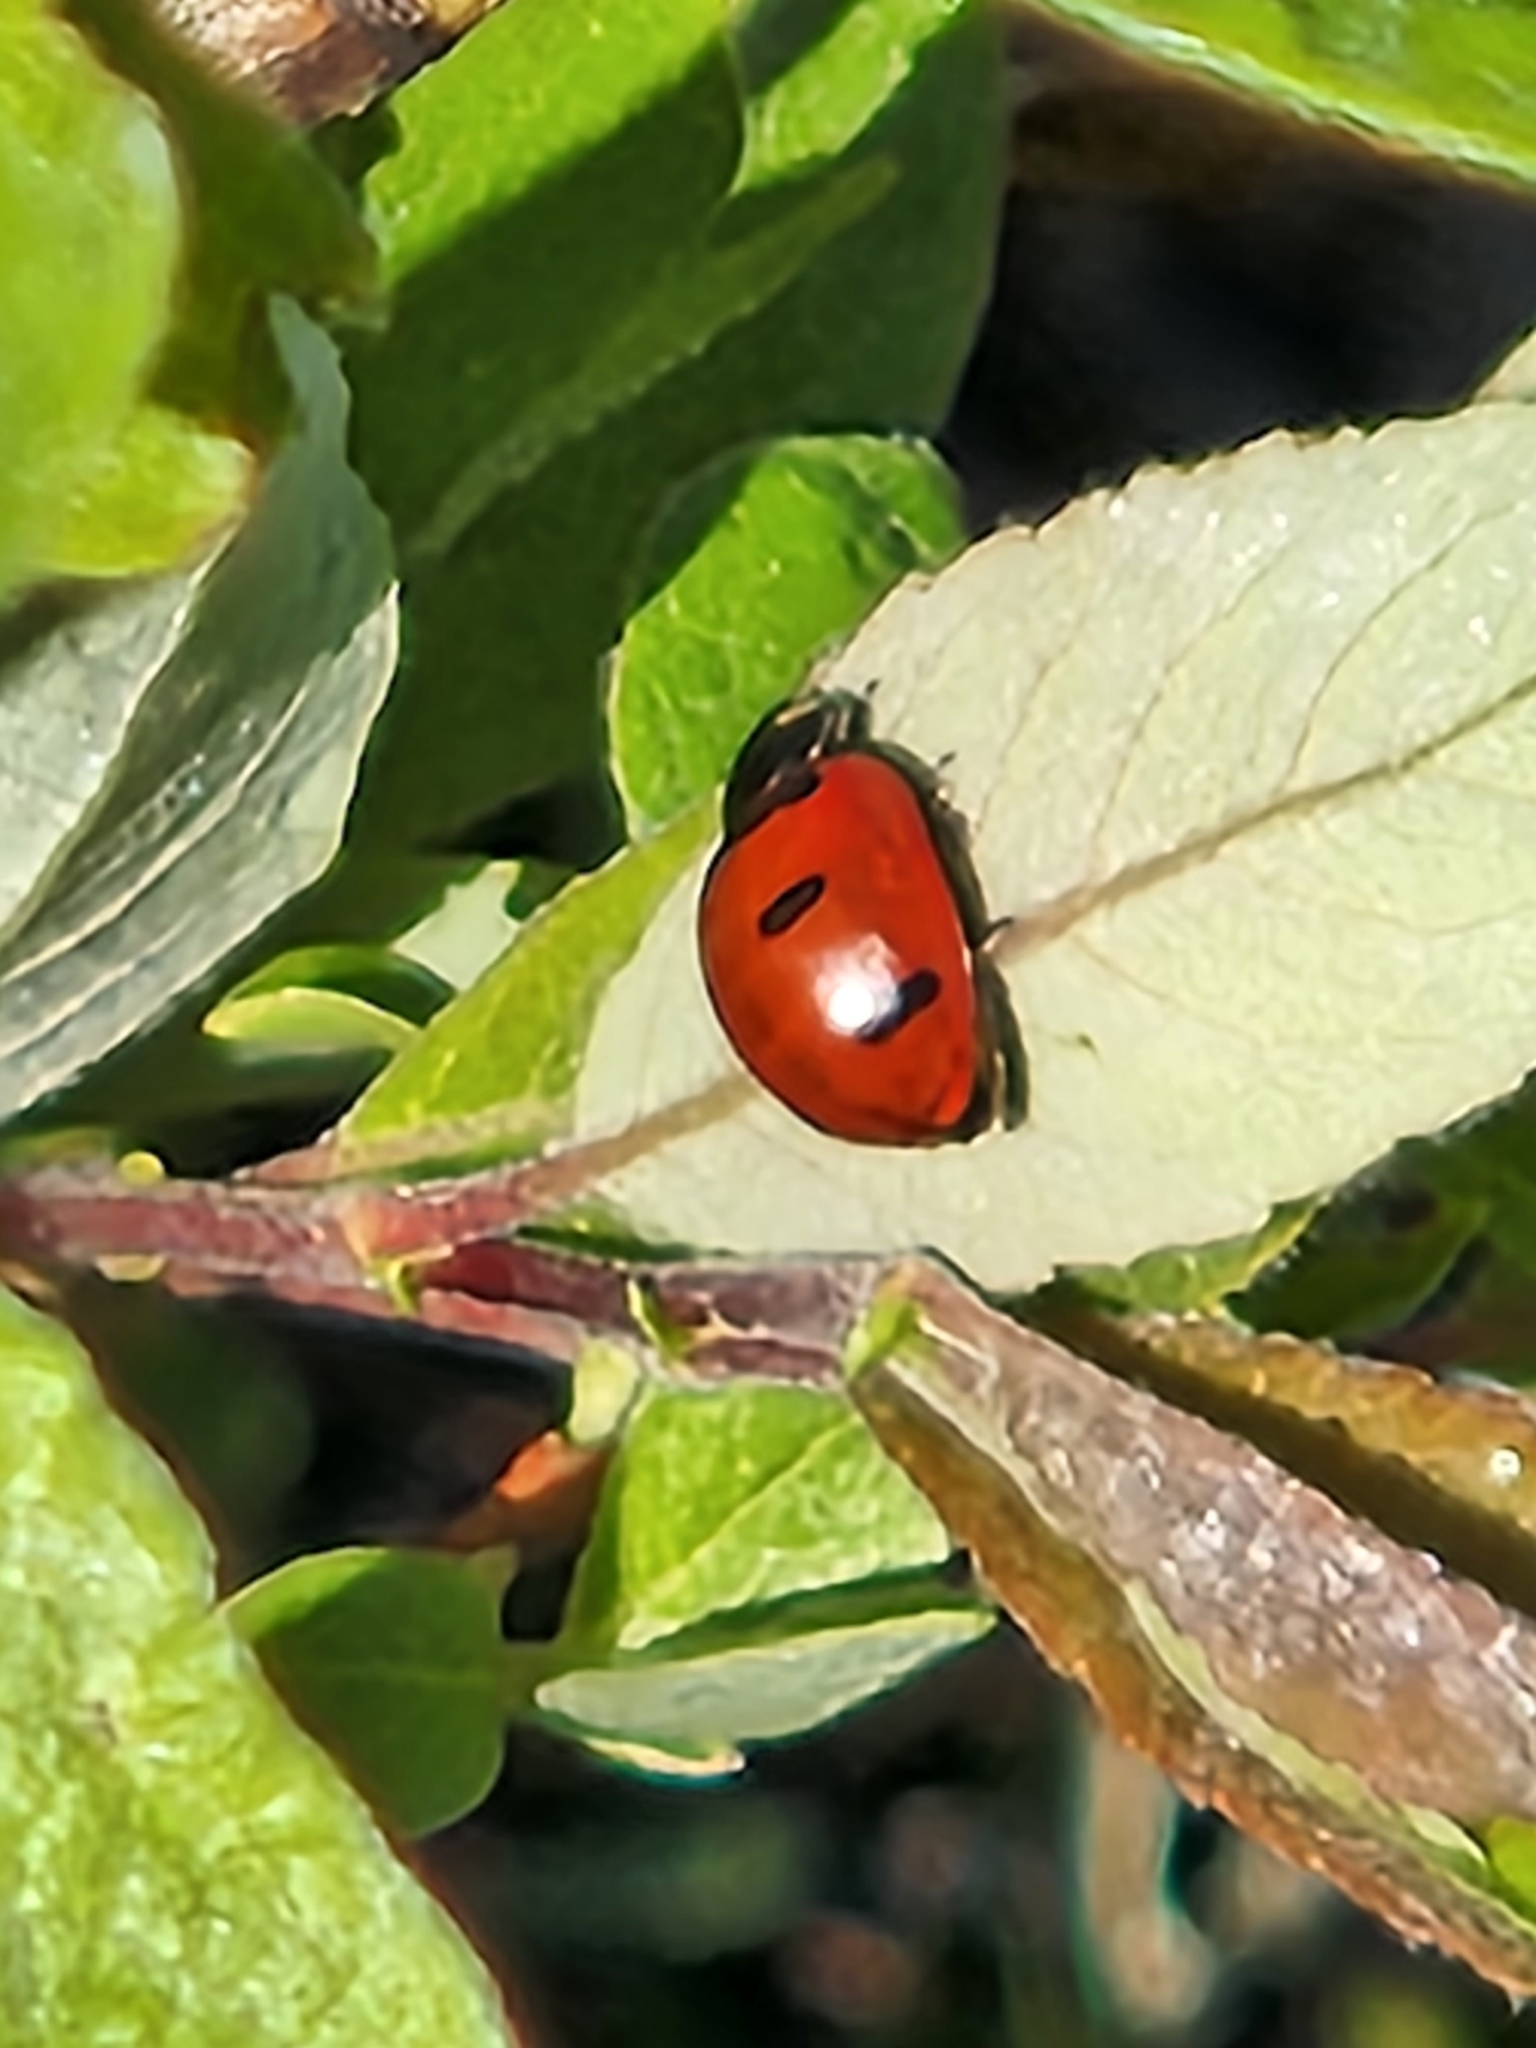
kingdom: Animalia
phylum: Arthropoda
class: Insecta
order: Coleoptera
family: Coccinellidae
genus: Coccinella
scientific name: Coccinella transversoguttata
